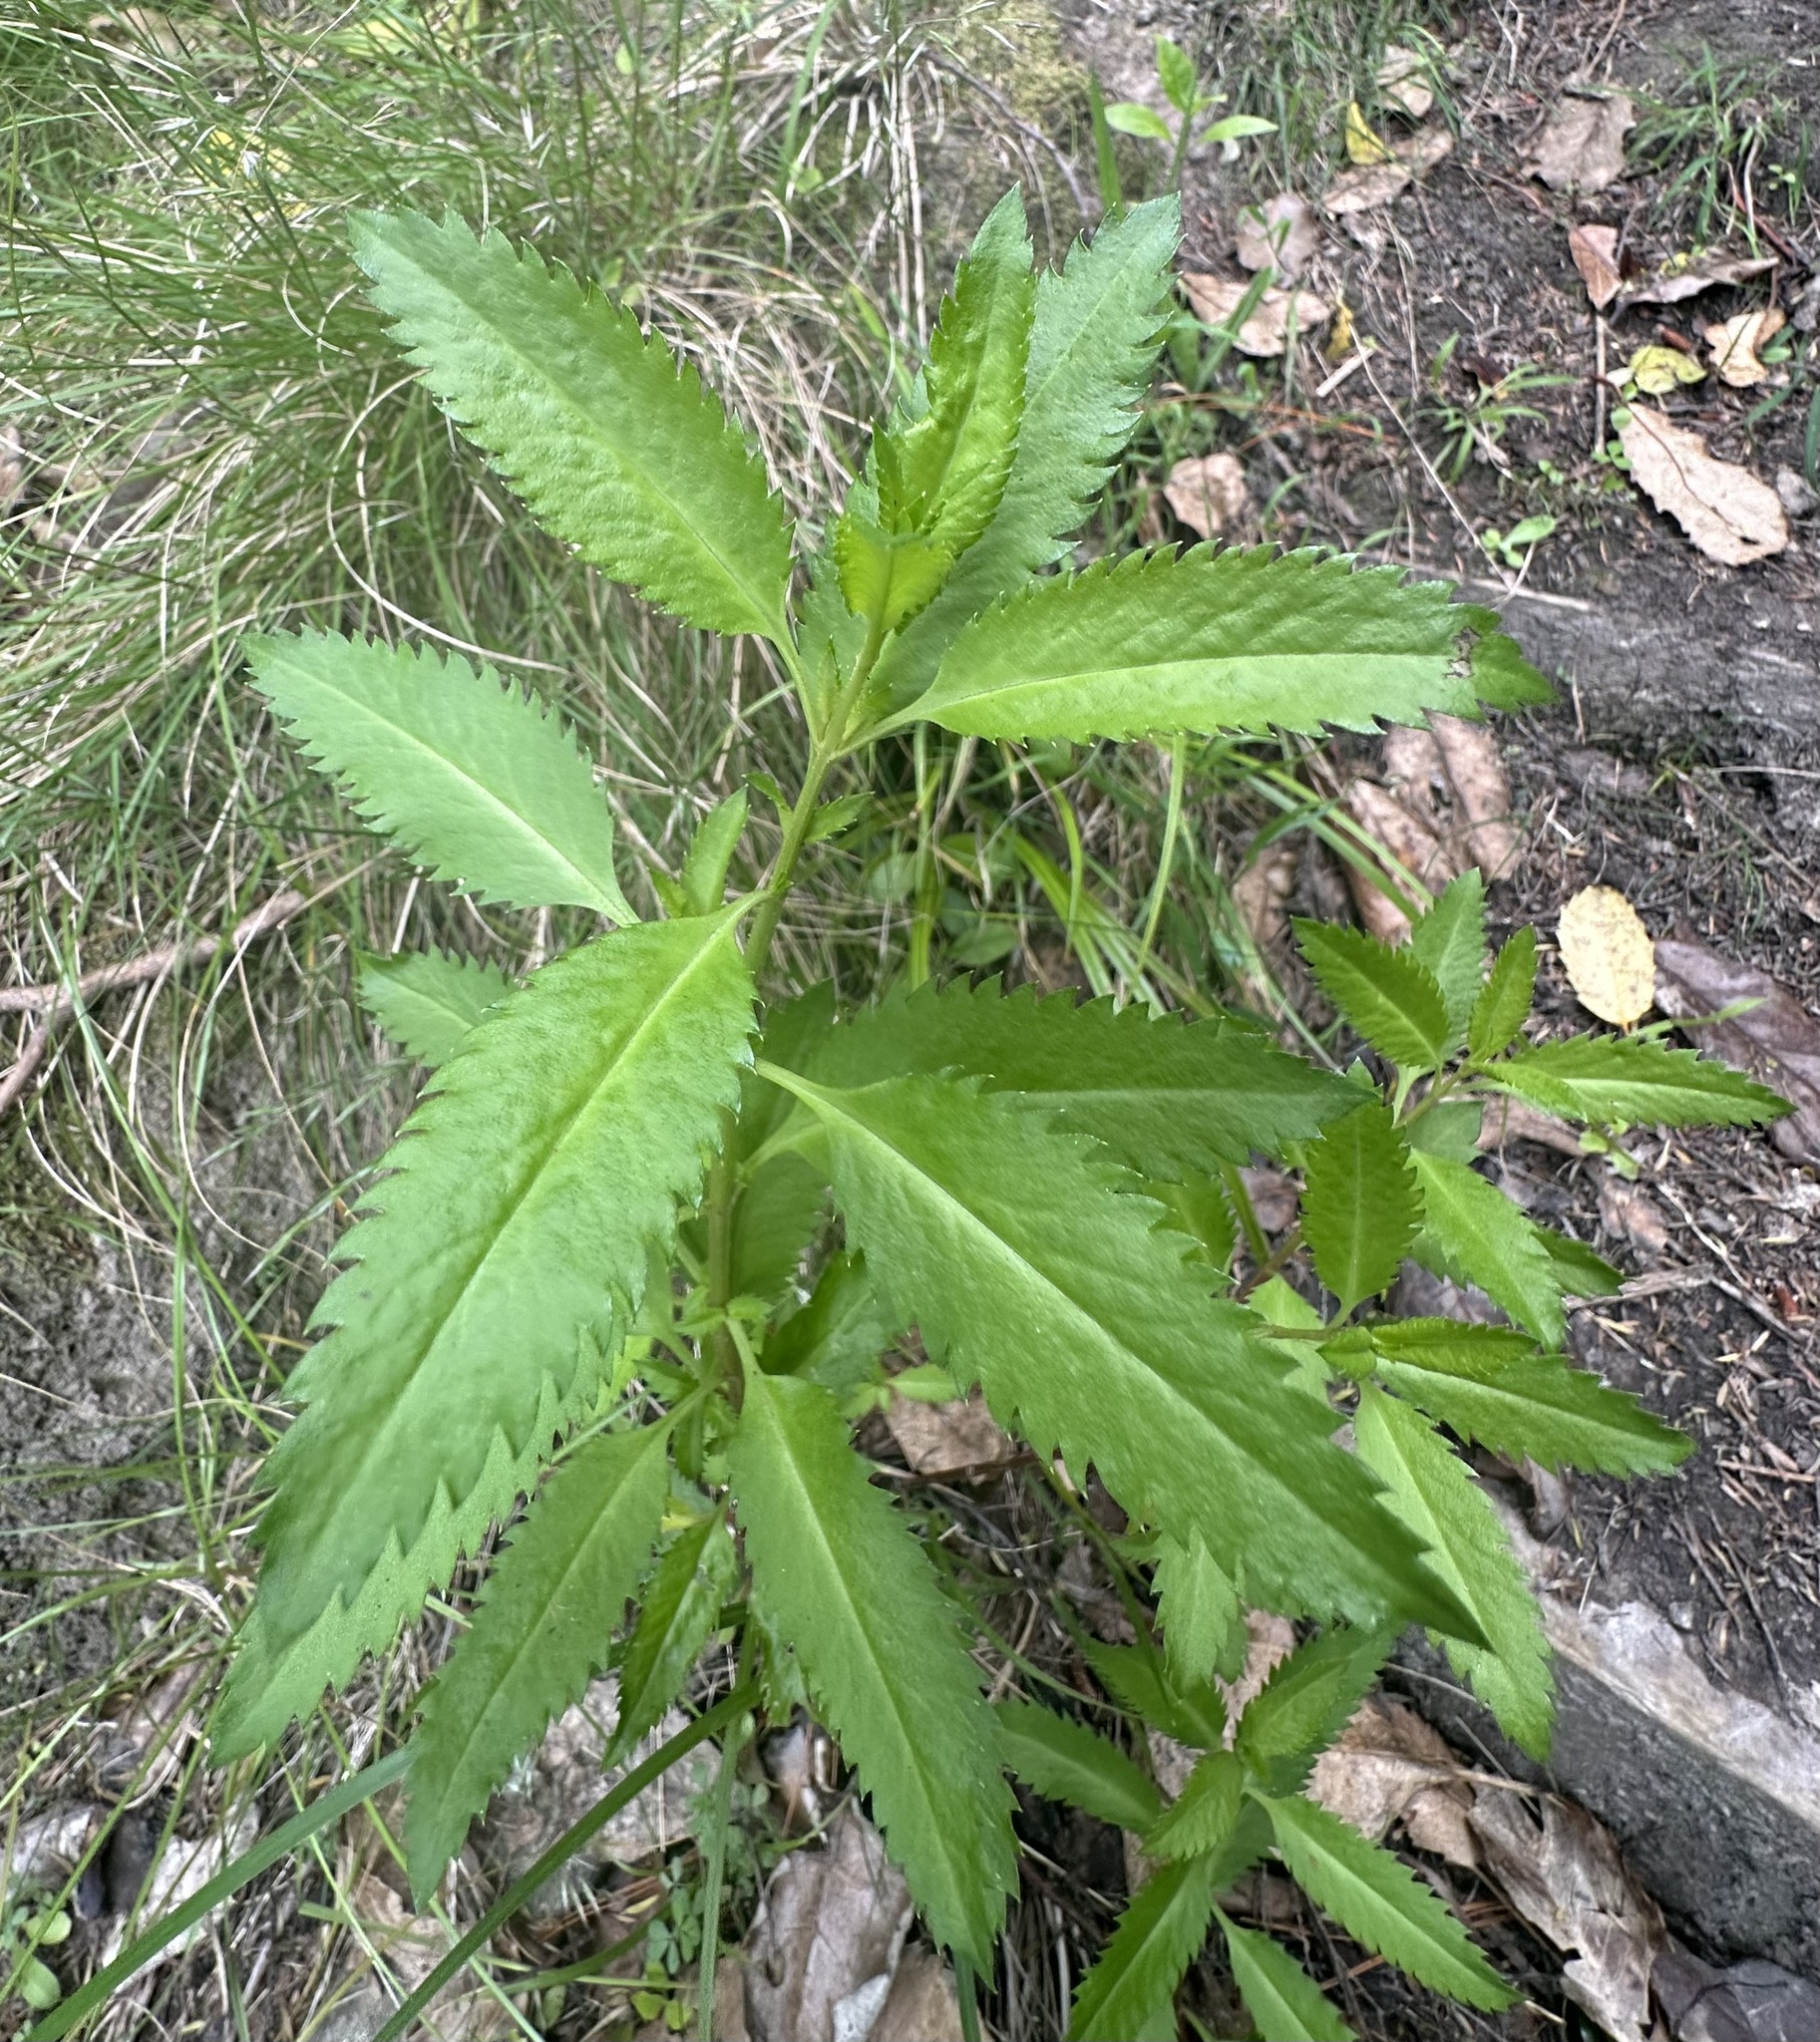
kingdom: Plantae
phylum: Tracheophyta
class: Magnoliopsida
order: Saxifragales
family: Haloragaceae
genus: Haloragis
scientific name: Haloragis erecta
